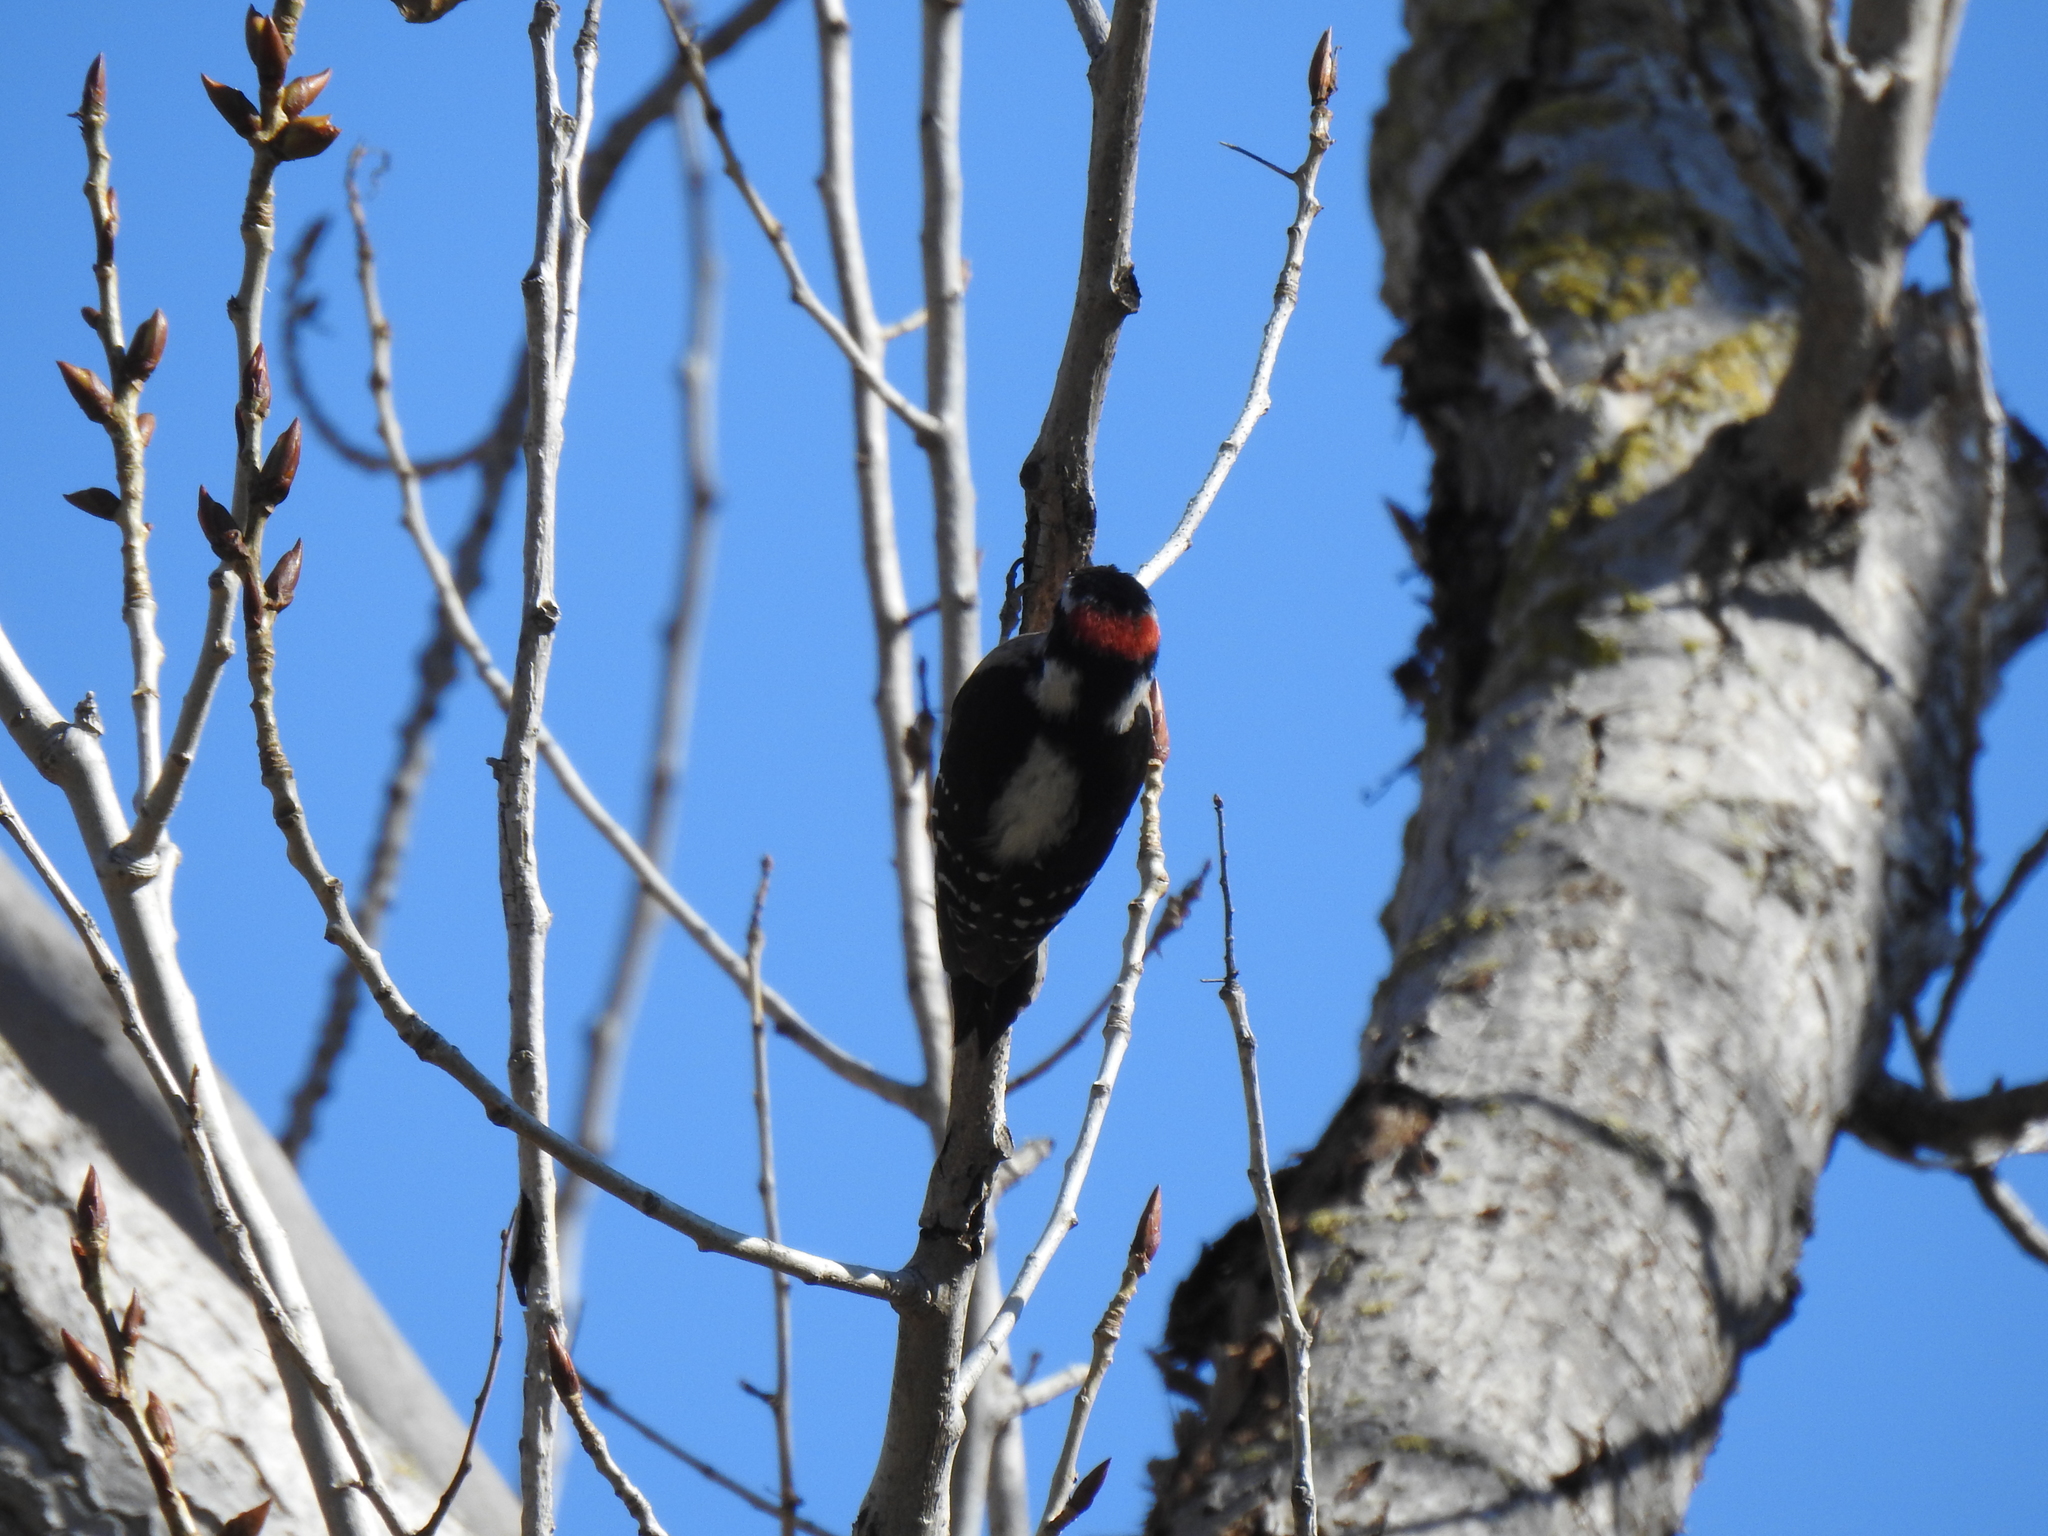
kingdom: Animalia
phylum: Chordata
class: Aves
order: Piciformes
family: Picidae
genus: Dryobates
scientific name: Dryobates pubescens
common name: Downy woodpecker
